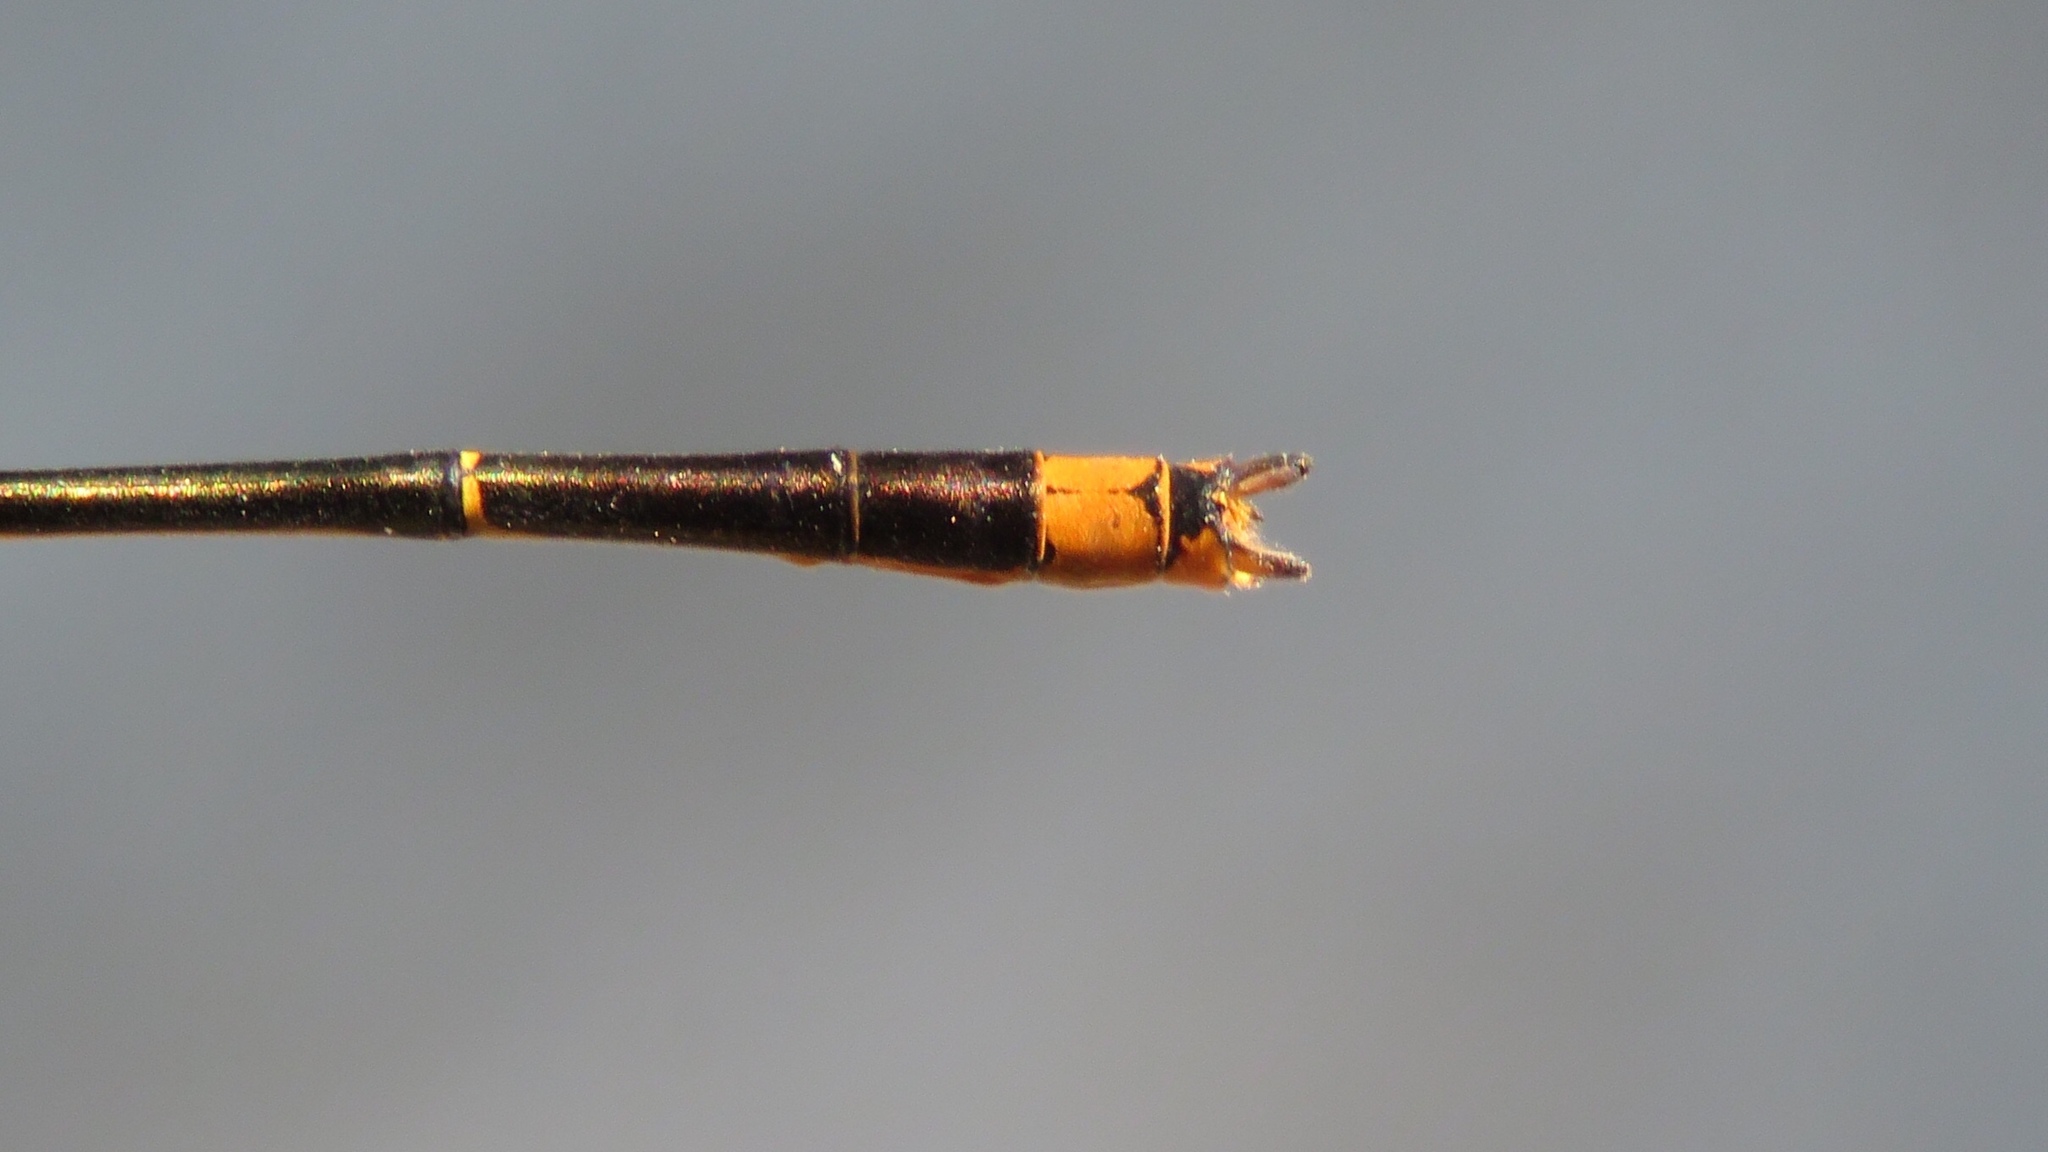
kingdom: Animalia
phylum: Arthropoda
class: Insecta
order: Odonata
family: Coenagrionidae
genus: Enallagma
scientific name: Enallagma signatum
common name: Orange bluet
